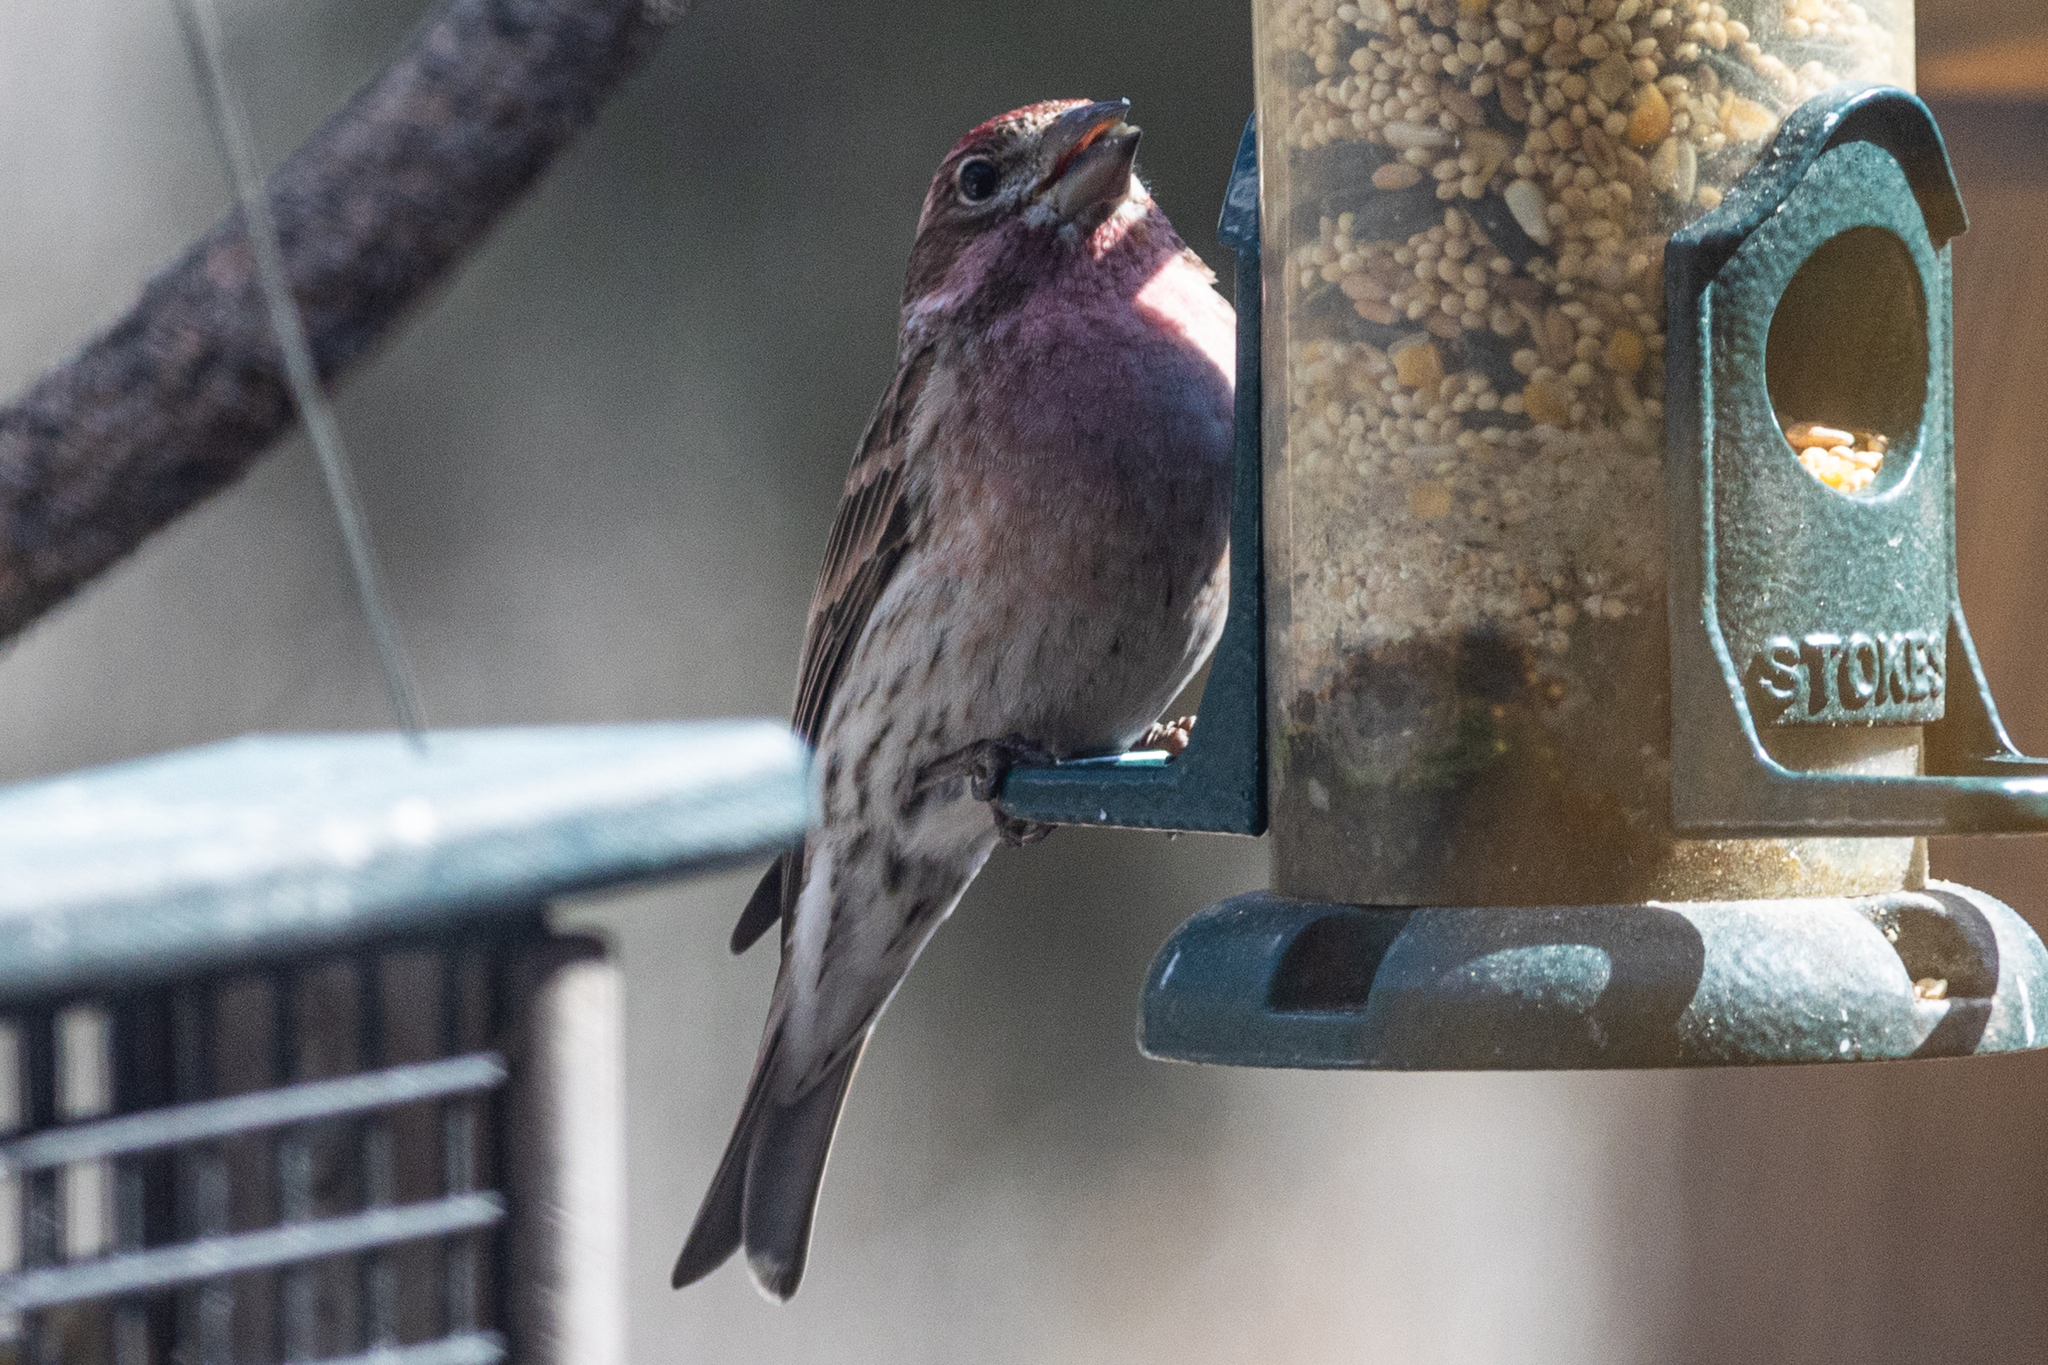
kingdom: Animalia
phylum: Chordata
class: Aves
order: Passeriformes
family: Fringillidae
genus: Haemorhous
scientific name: Haemorhous cassinii
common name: Cassin's finch
